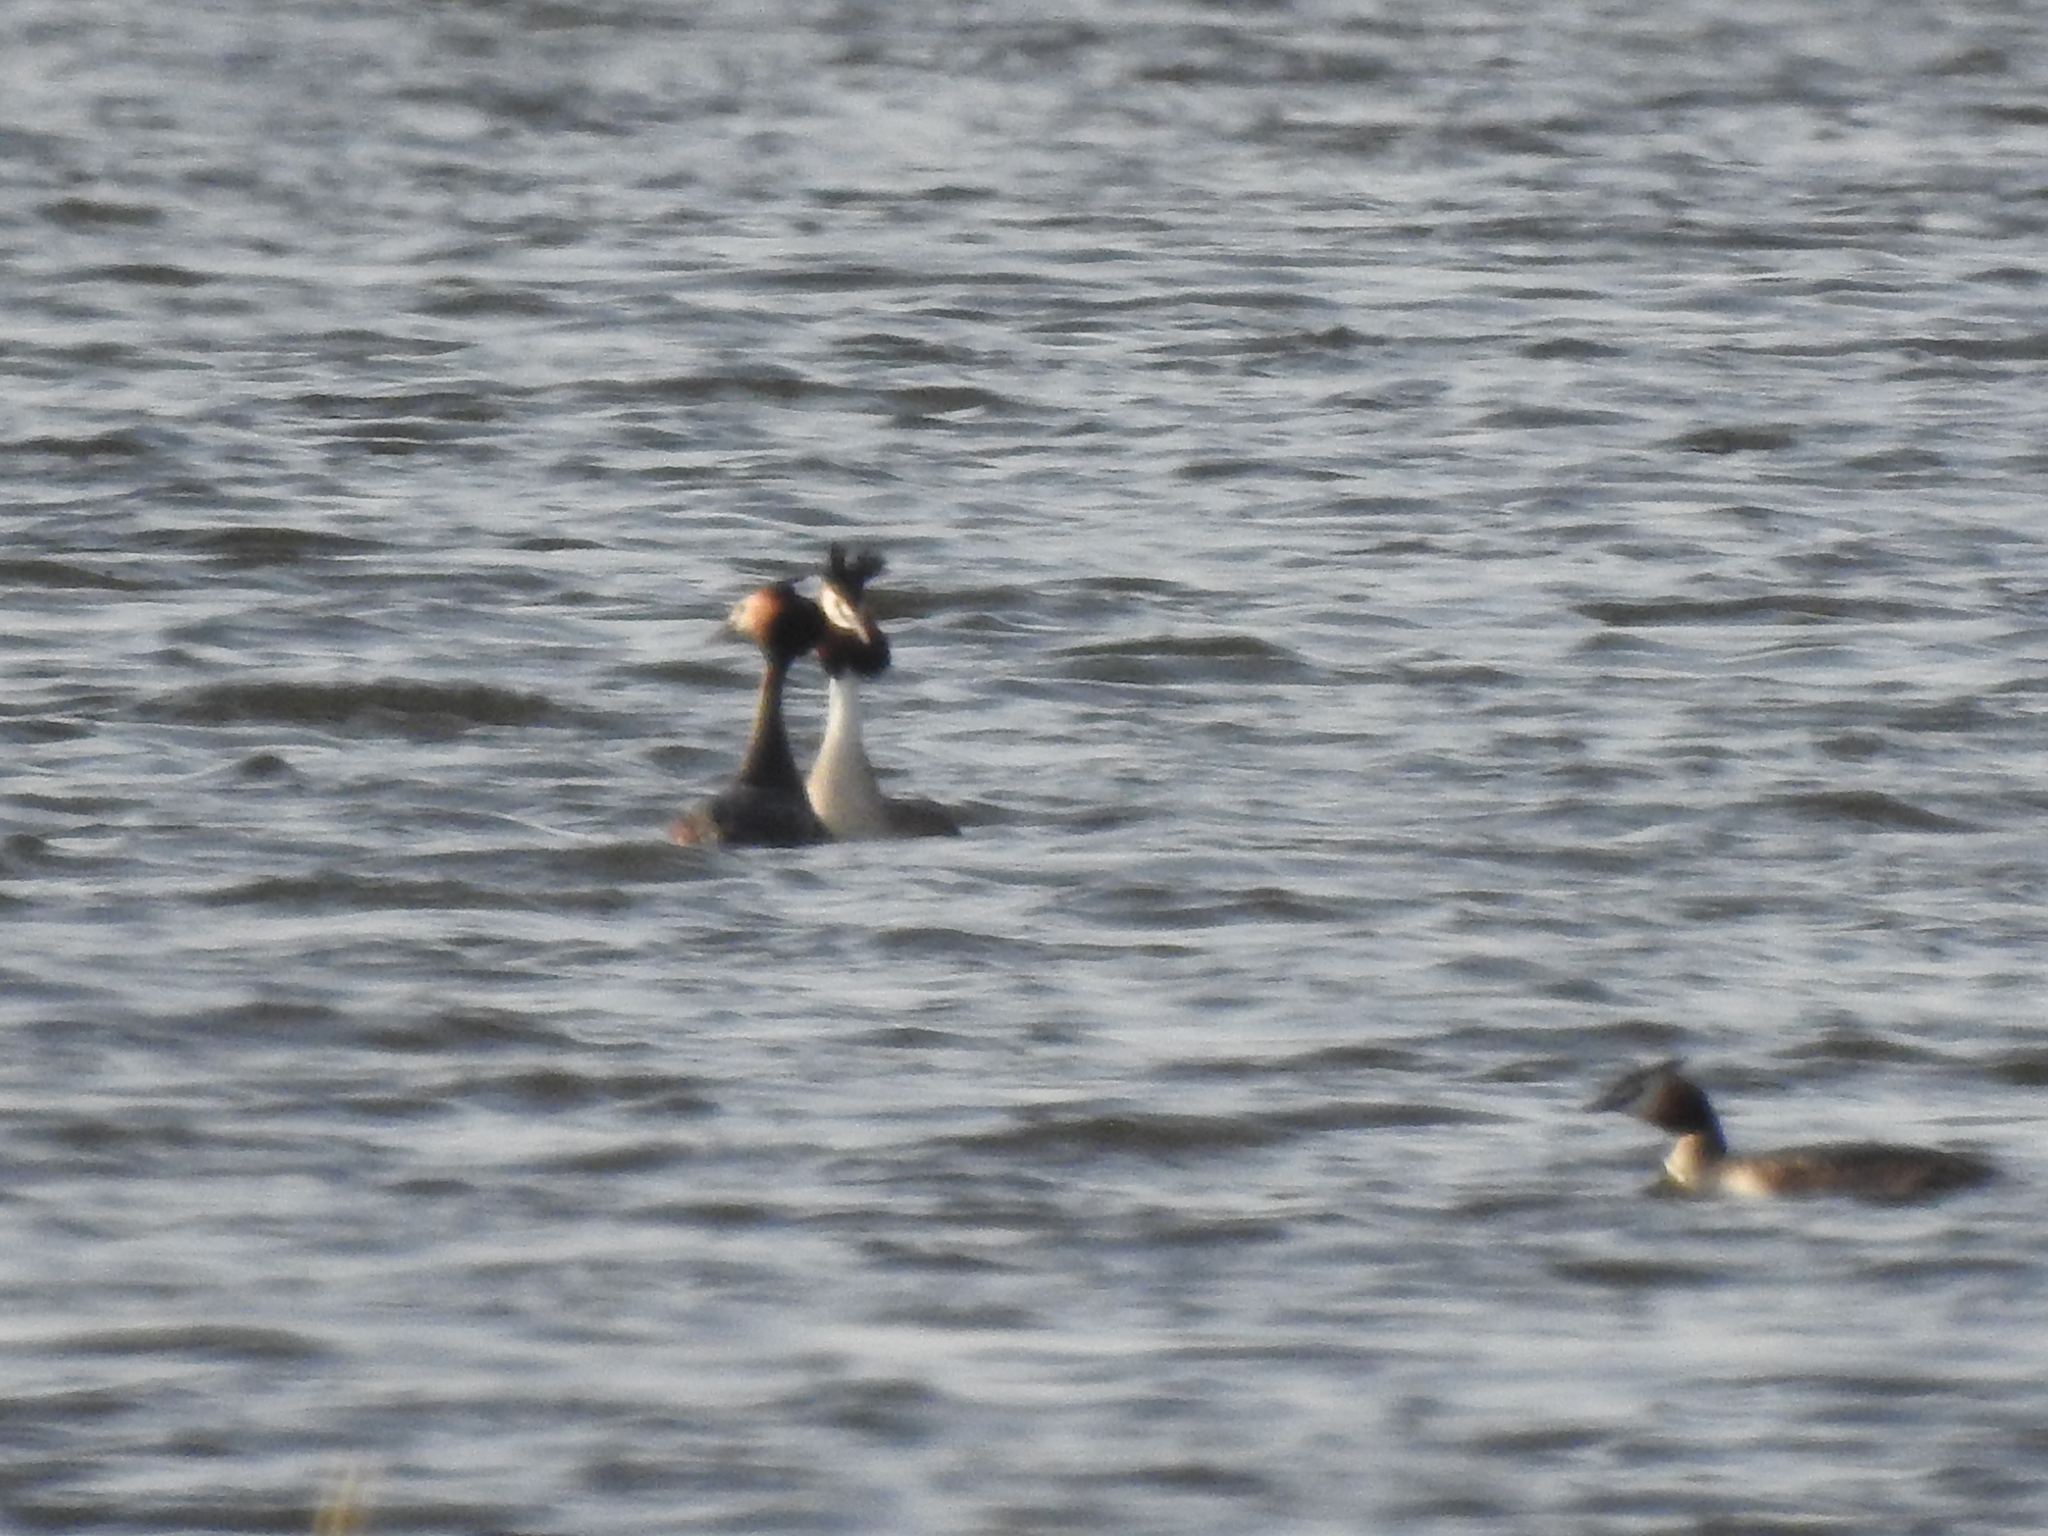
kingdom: Animalia
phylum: Chordata
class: Aves
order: Podicipediformes
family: Podicipedidae
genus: Podiceps
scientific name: Podiceps cristatus
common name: Great crested grebe
